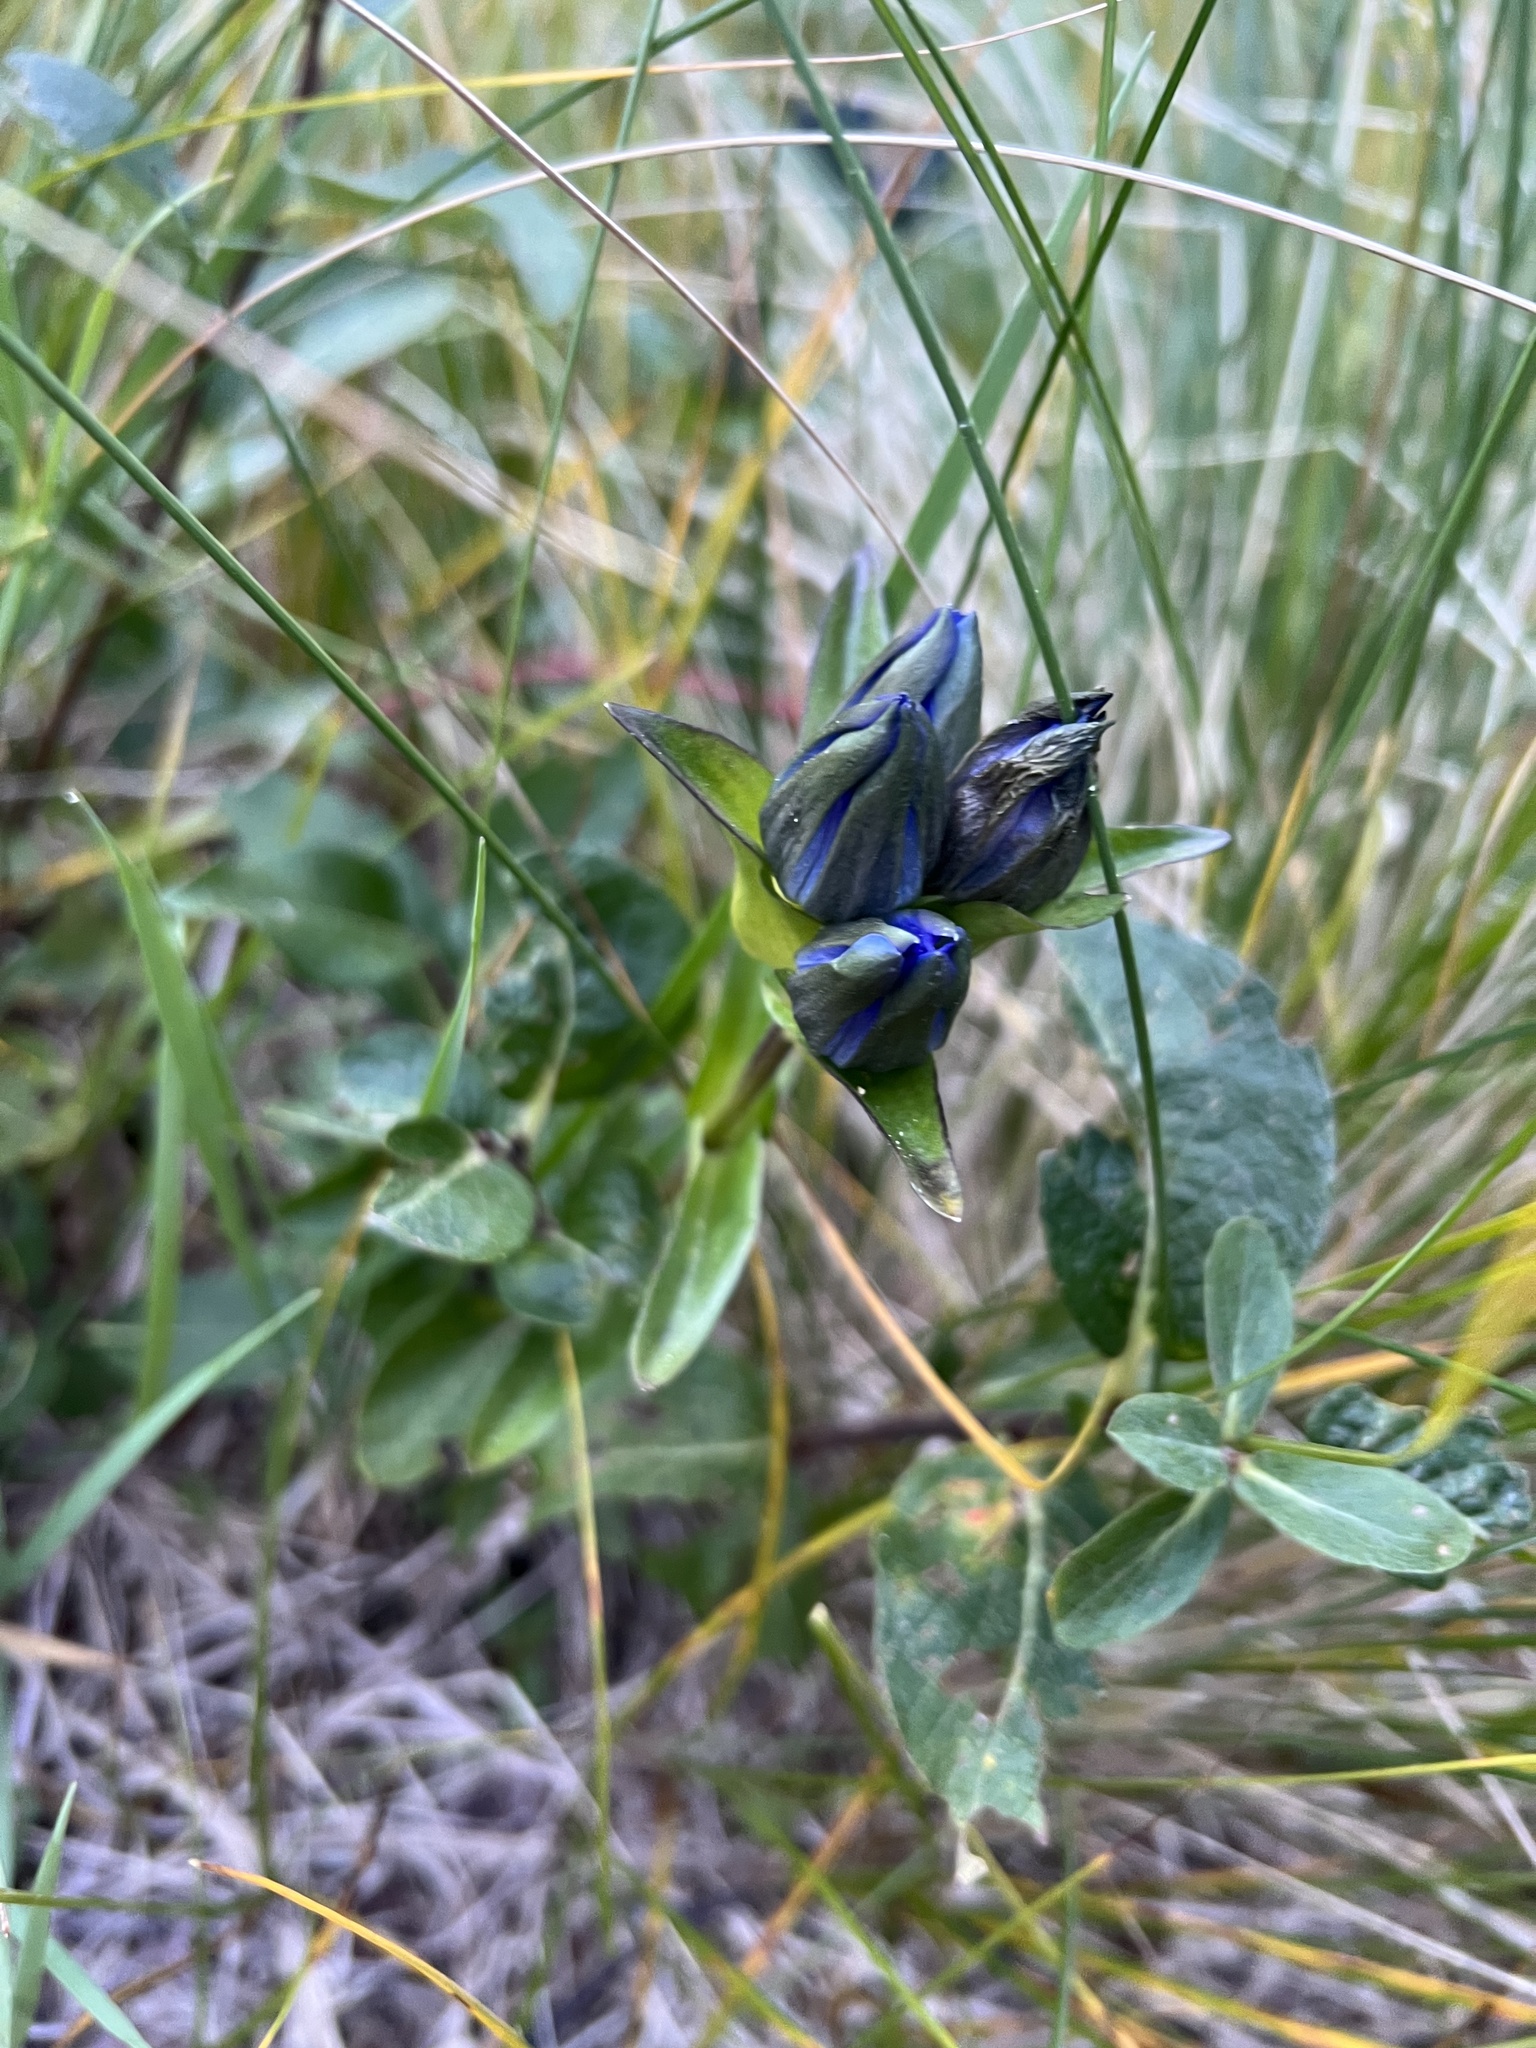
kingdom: Plantae
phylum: Tracheophyta
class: Magnoliopsida
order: Gentianales
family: Gentianaceae
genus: Gentiana
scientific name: Gentiana parryi
